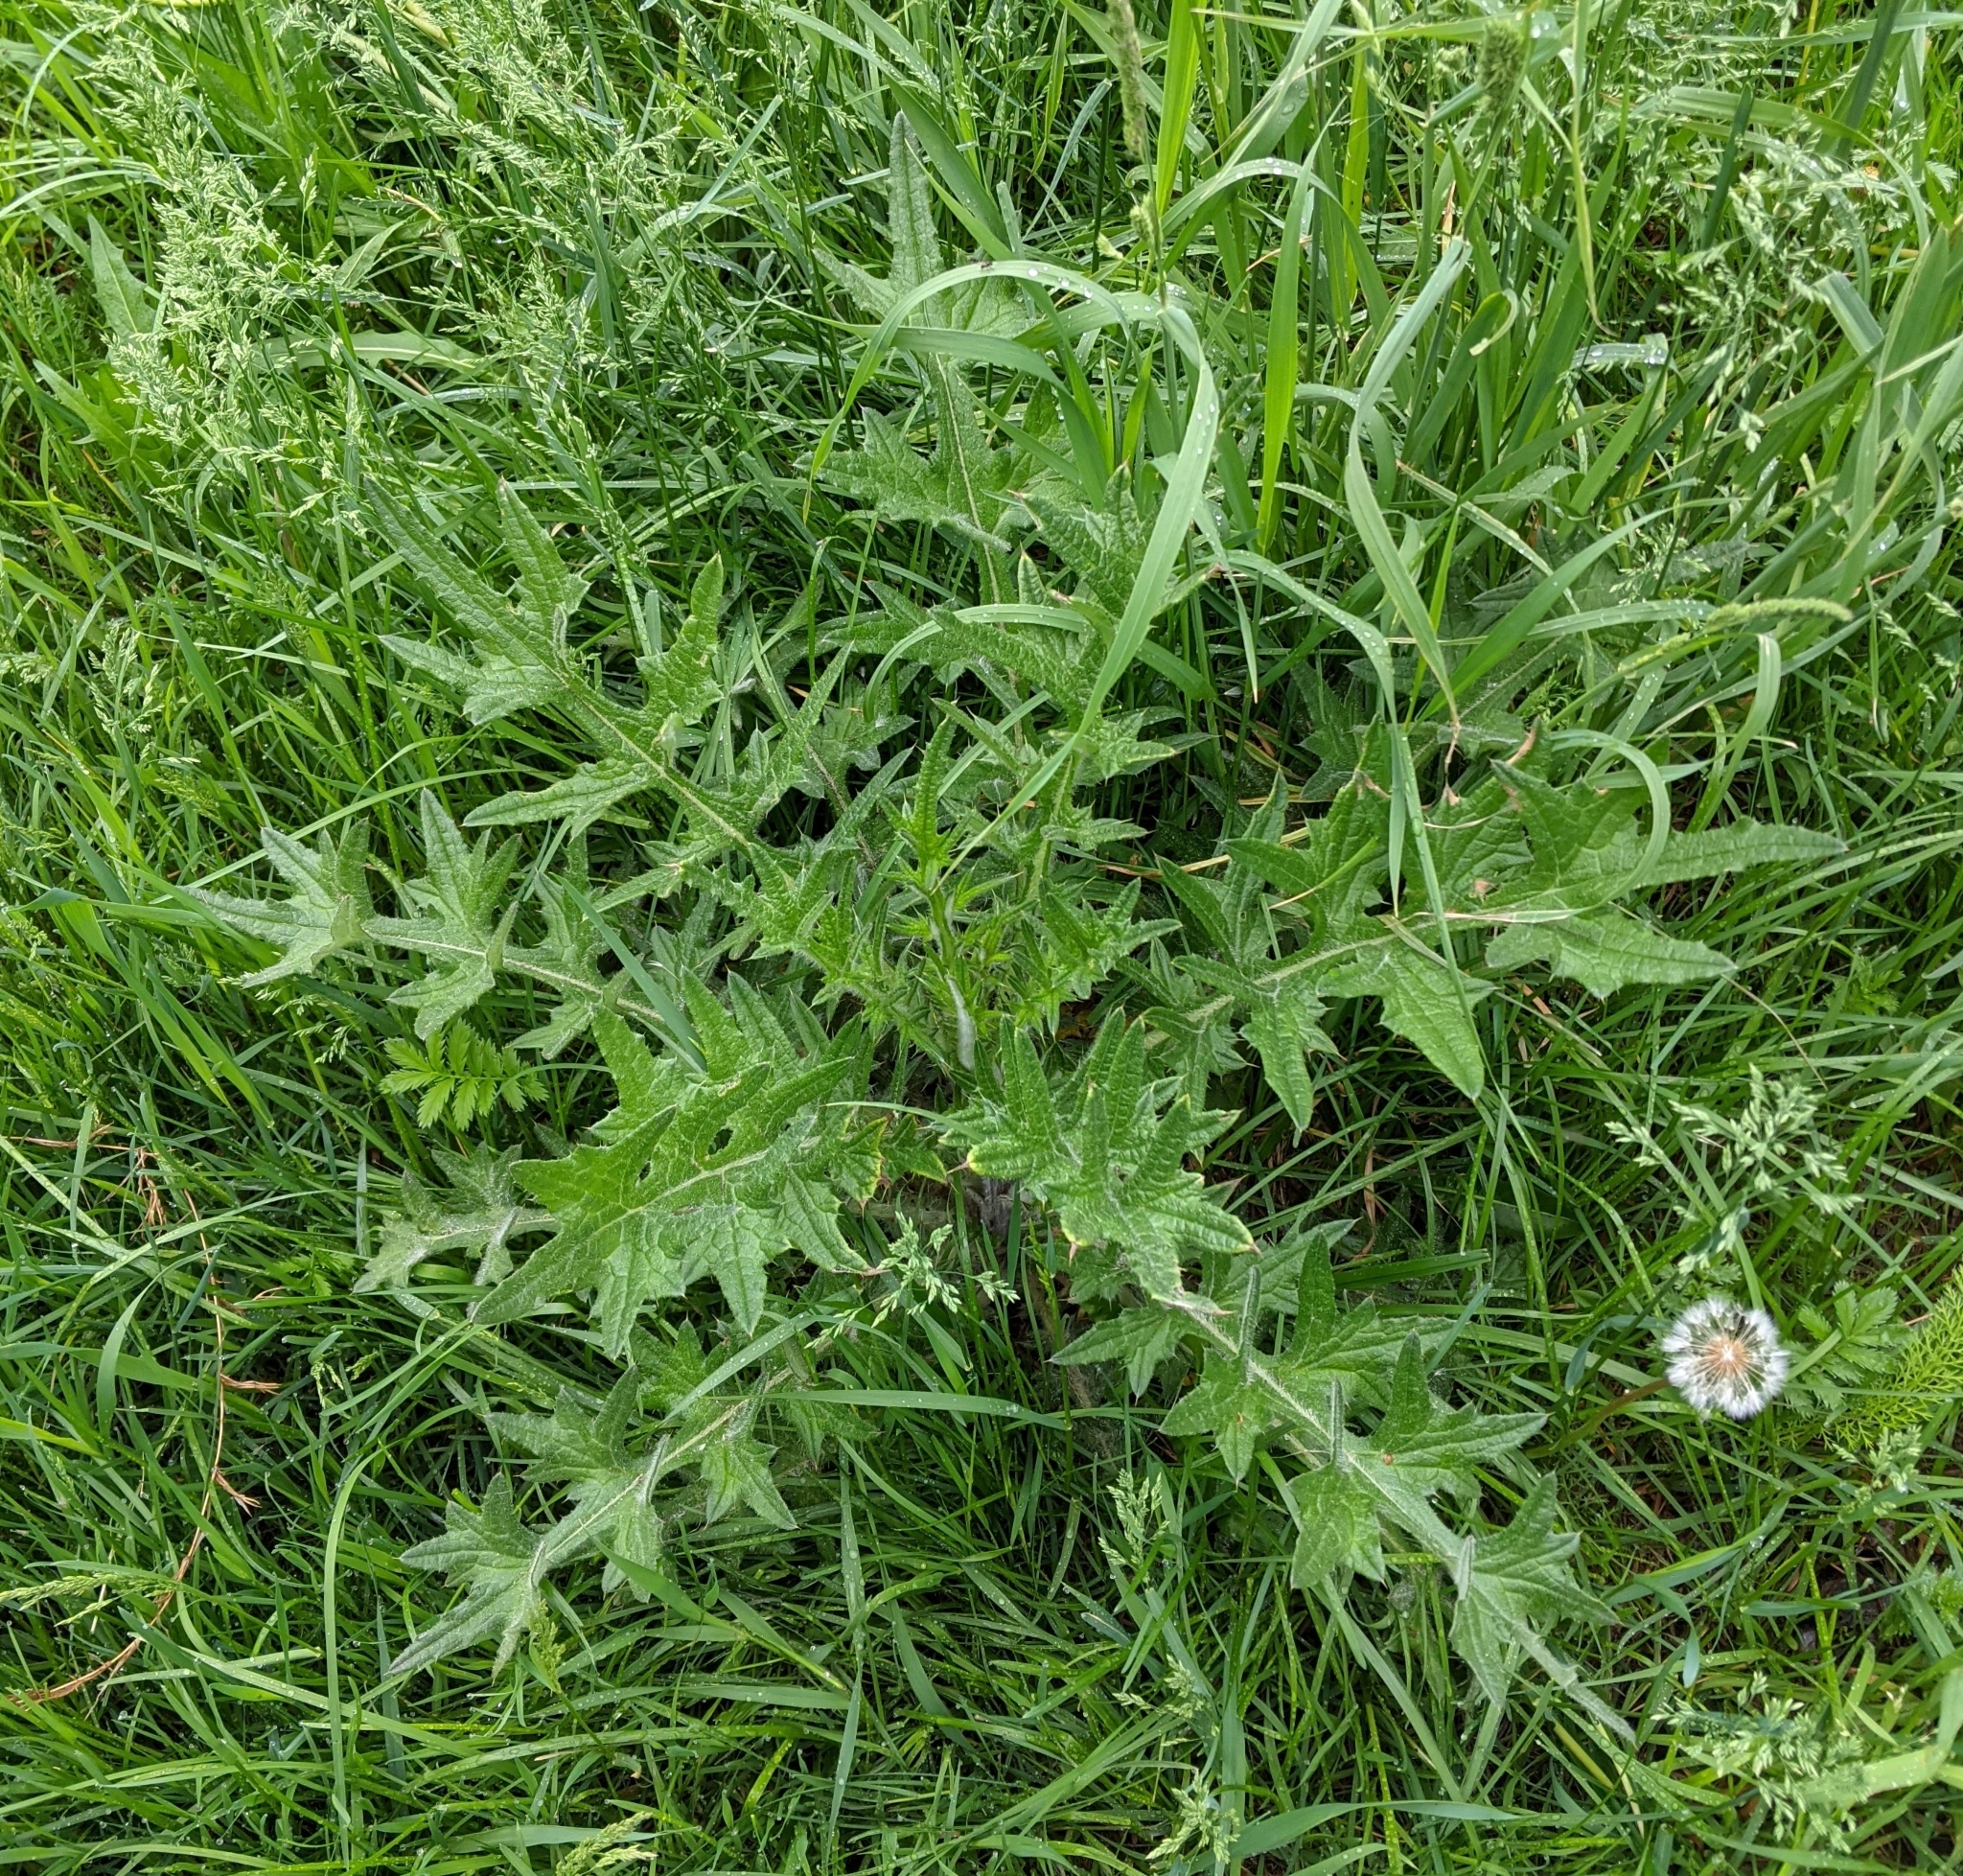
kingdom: Plantae
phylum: Tracheophyta
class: Magnoliopsida
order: Asterales
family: Asteraceae
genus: Cirsium
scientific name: Cirsium vulgare
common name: Bull thistle
